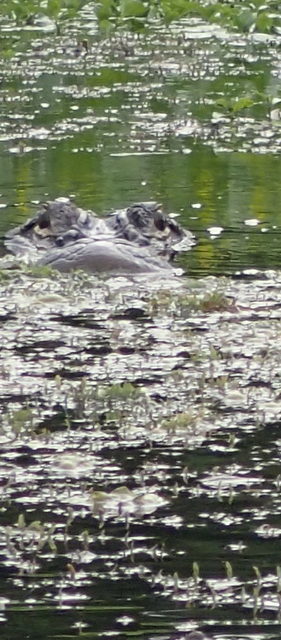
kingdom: Animalia
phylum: Chordata
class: Crocodylia
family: Alligatoridae
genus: Alligator
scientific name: Alligator mississippiensis
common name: American alligator
